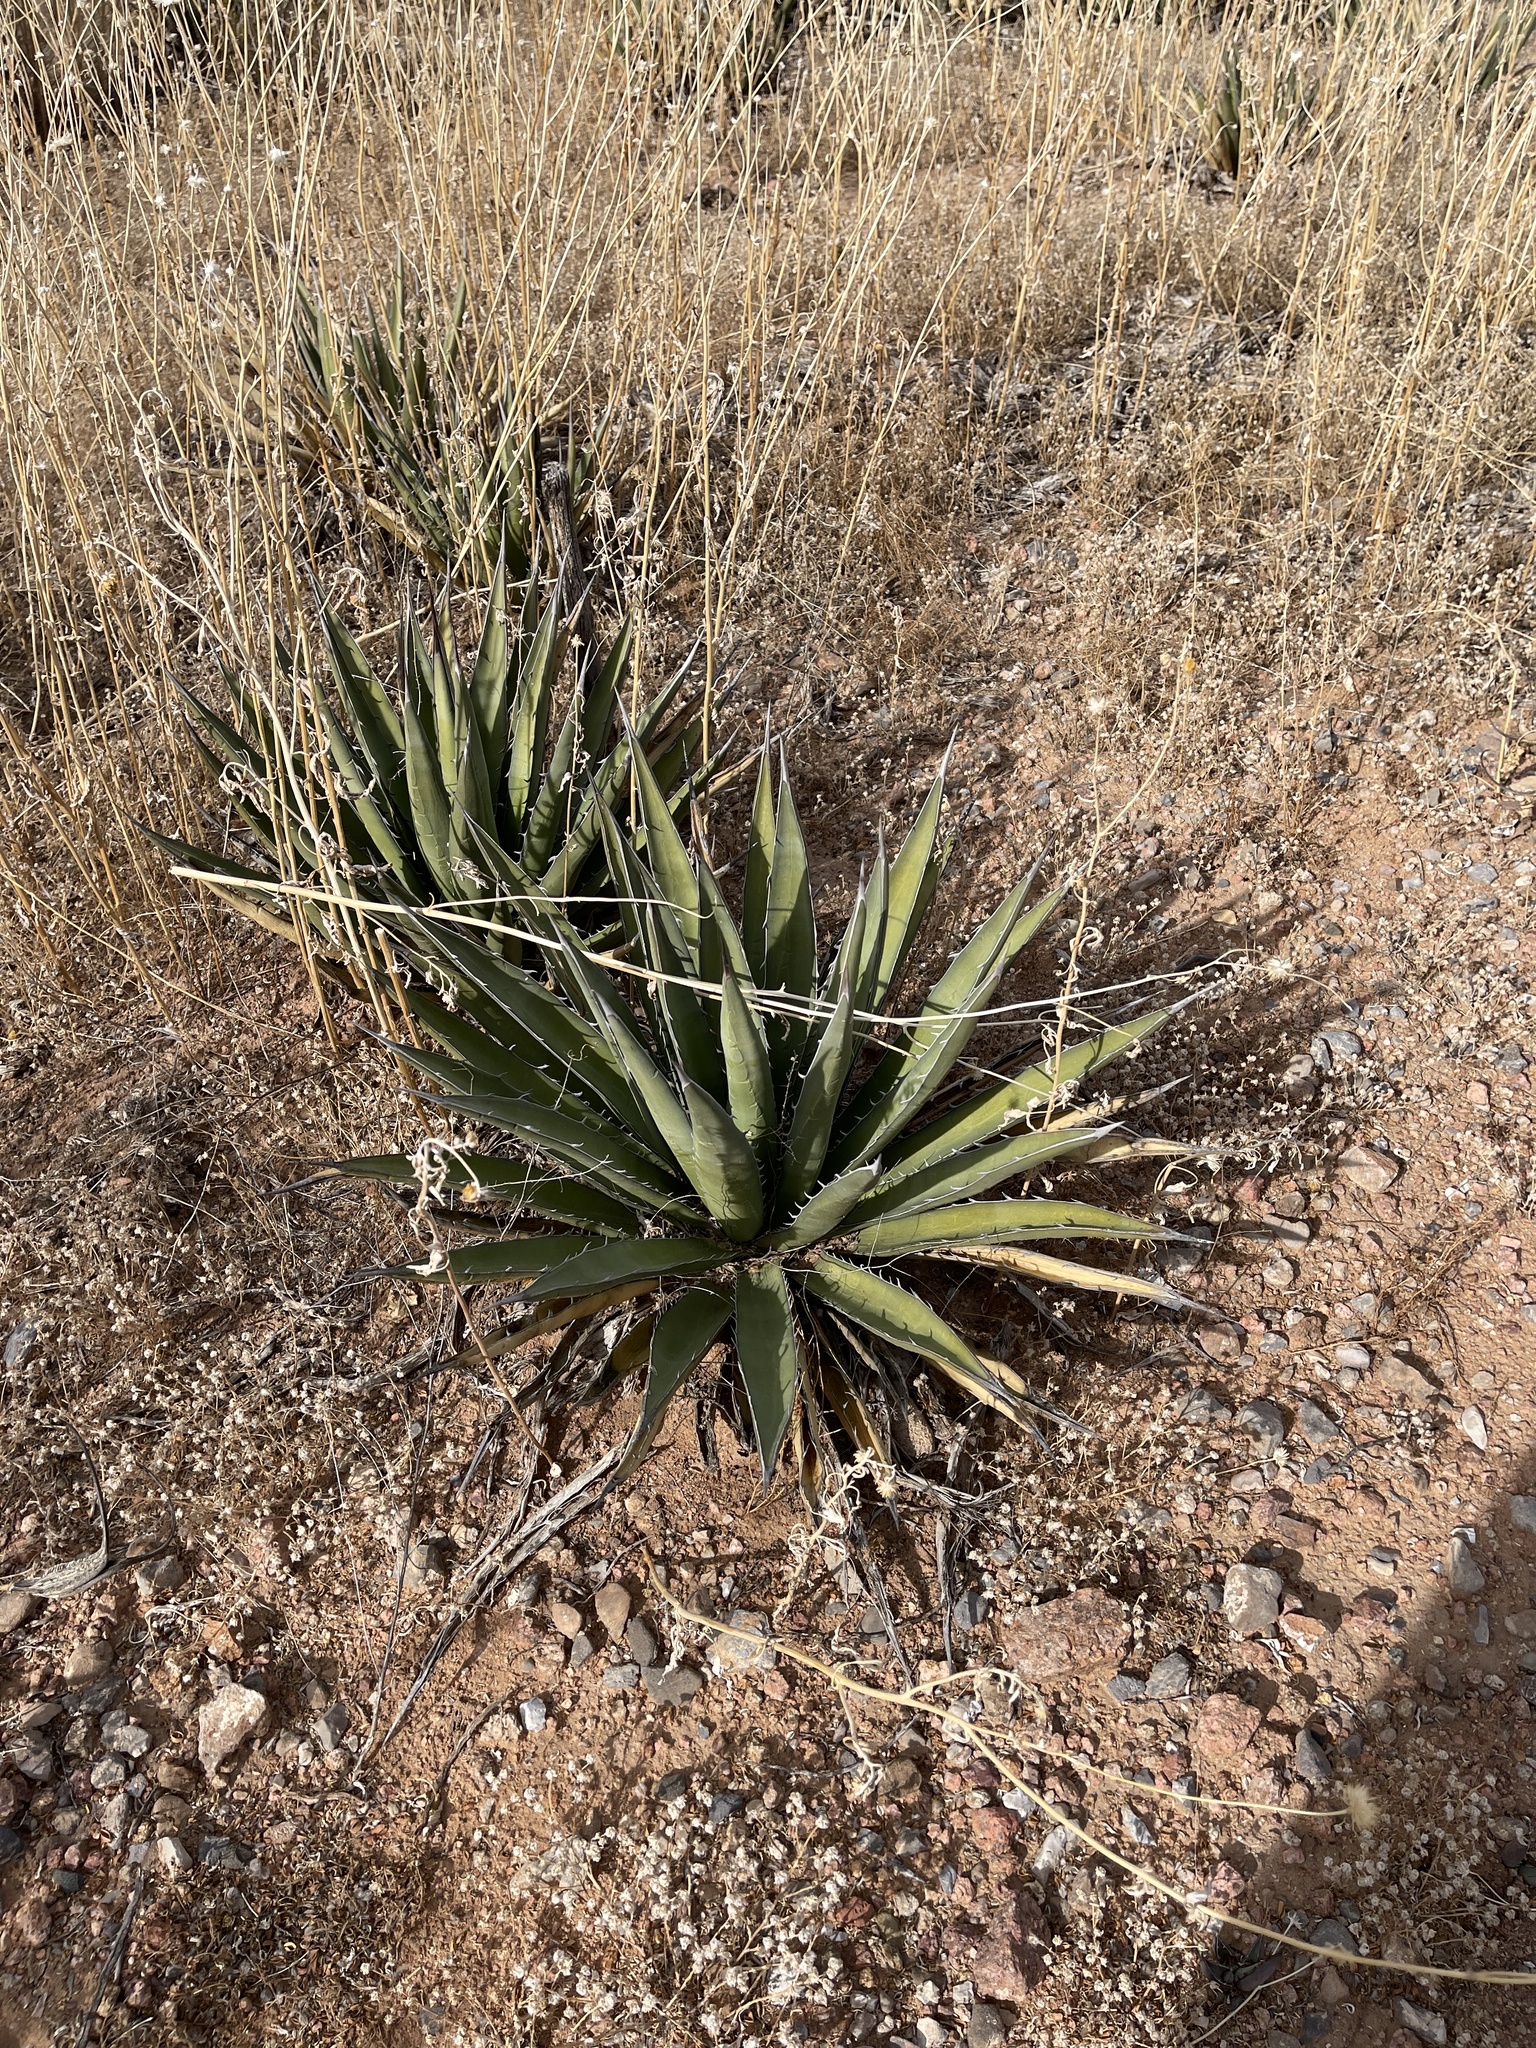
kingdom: Plantae
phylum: Tracheophyta
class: Liliopsida
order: Asparagales
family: Asparagaceae
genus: Agave
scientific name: Agave lechuguilla
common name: Lecheguilla agave
